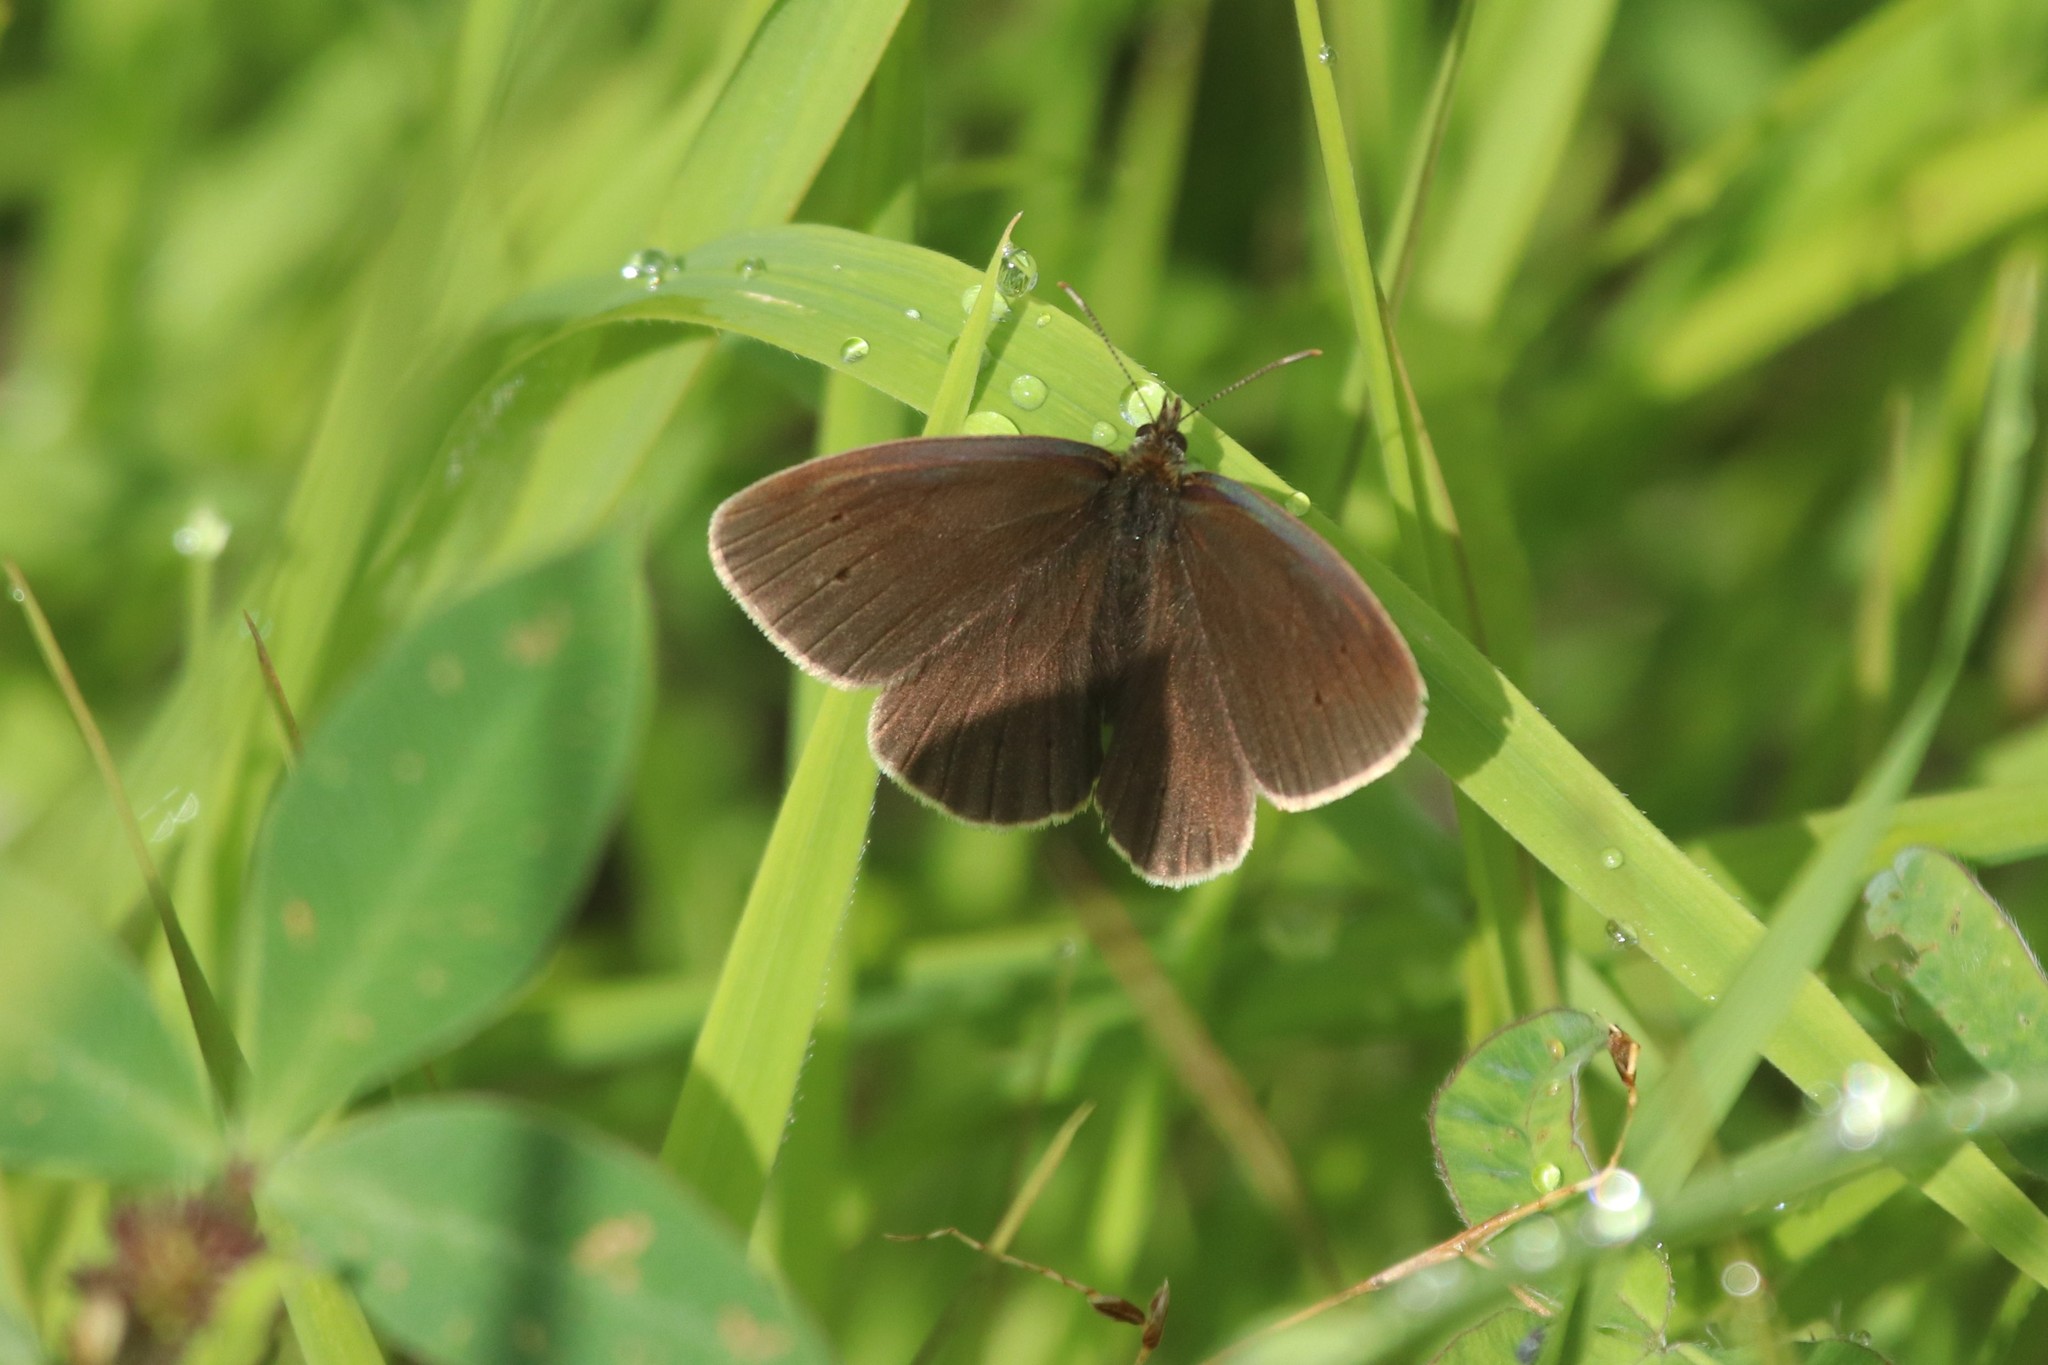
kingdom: Animalia
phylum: Arthropoda
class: Insecta
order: Lepidoptera
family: Nymphalidae
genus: Aphantopus
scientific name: Aphantopus hyperantus
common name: Ringlet
